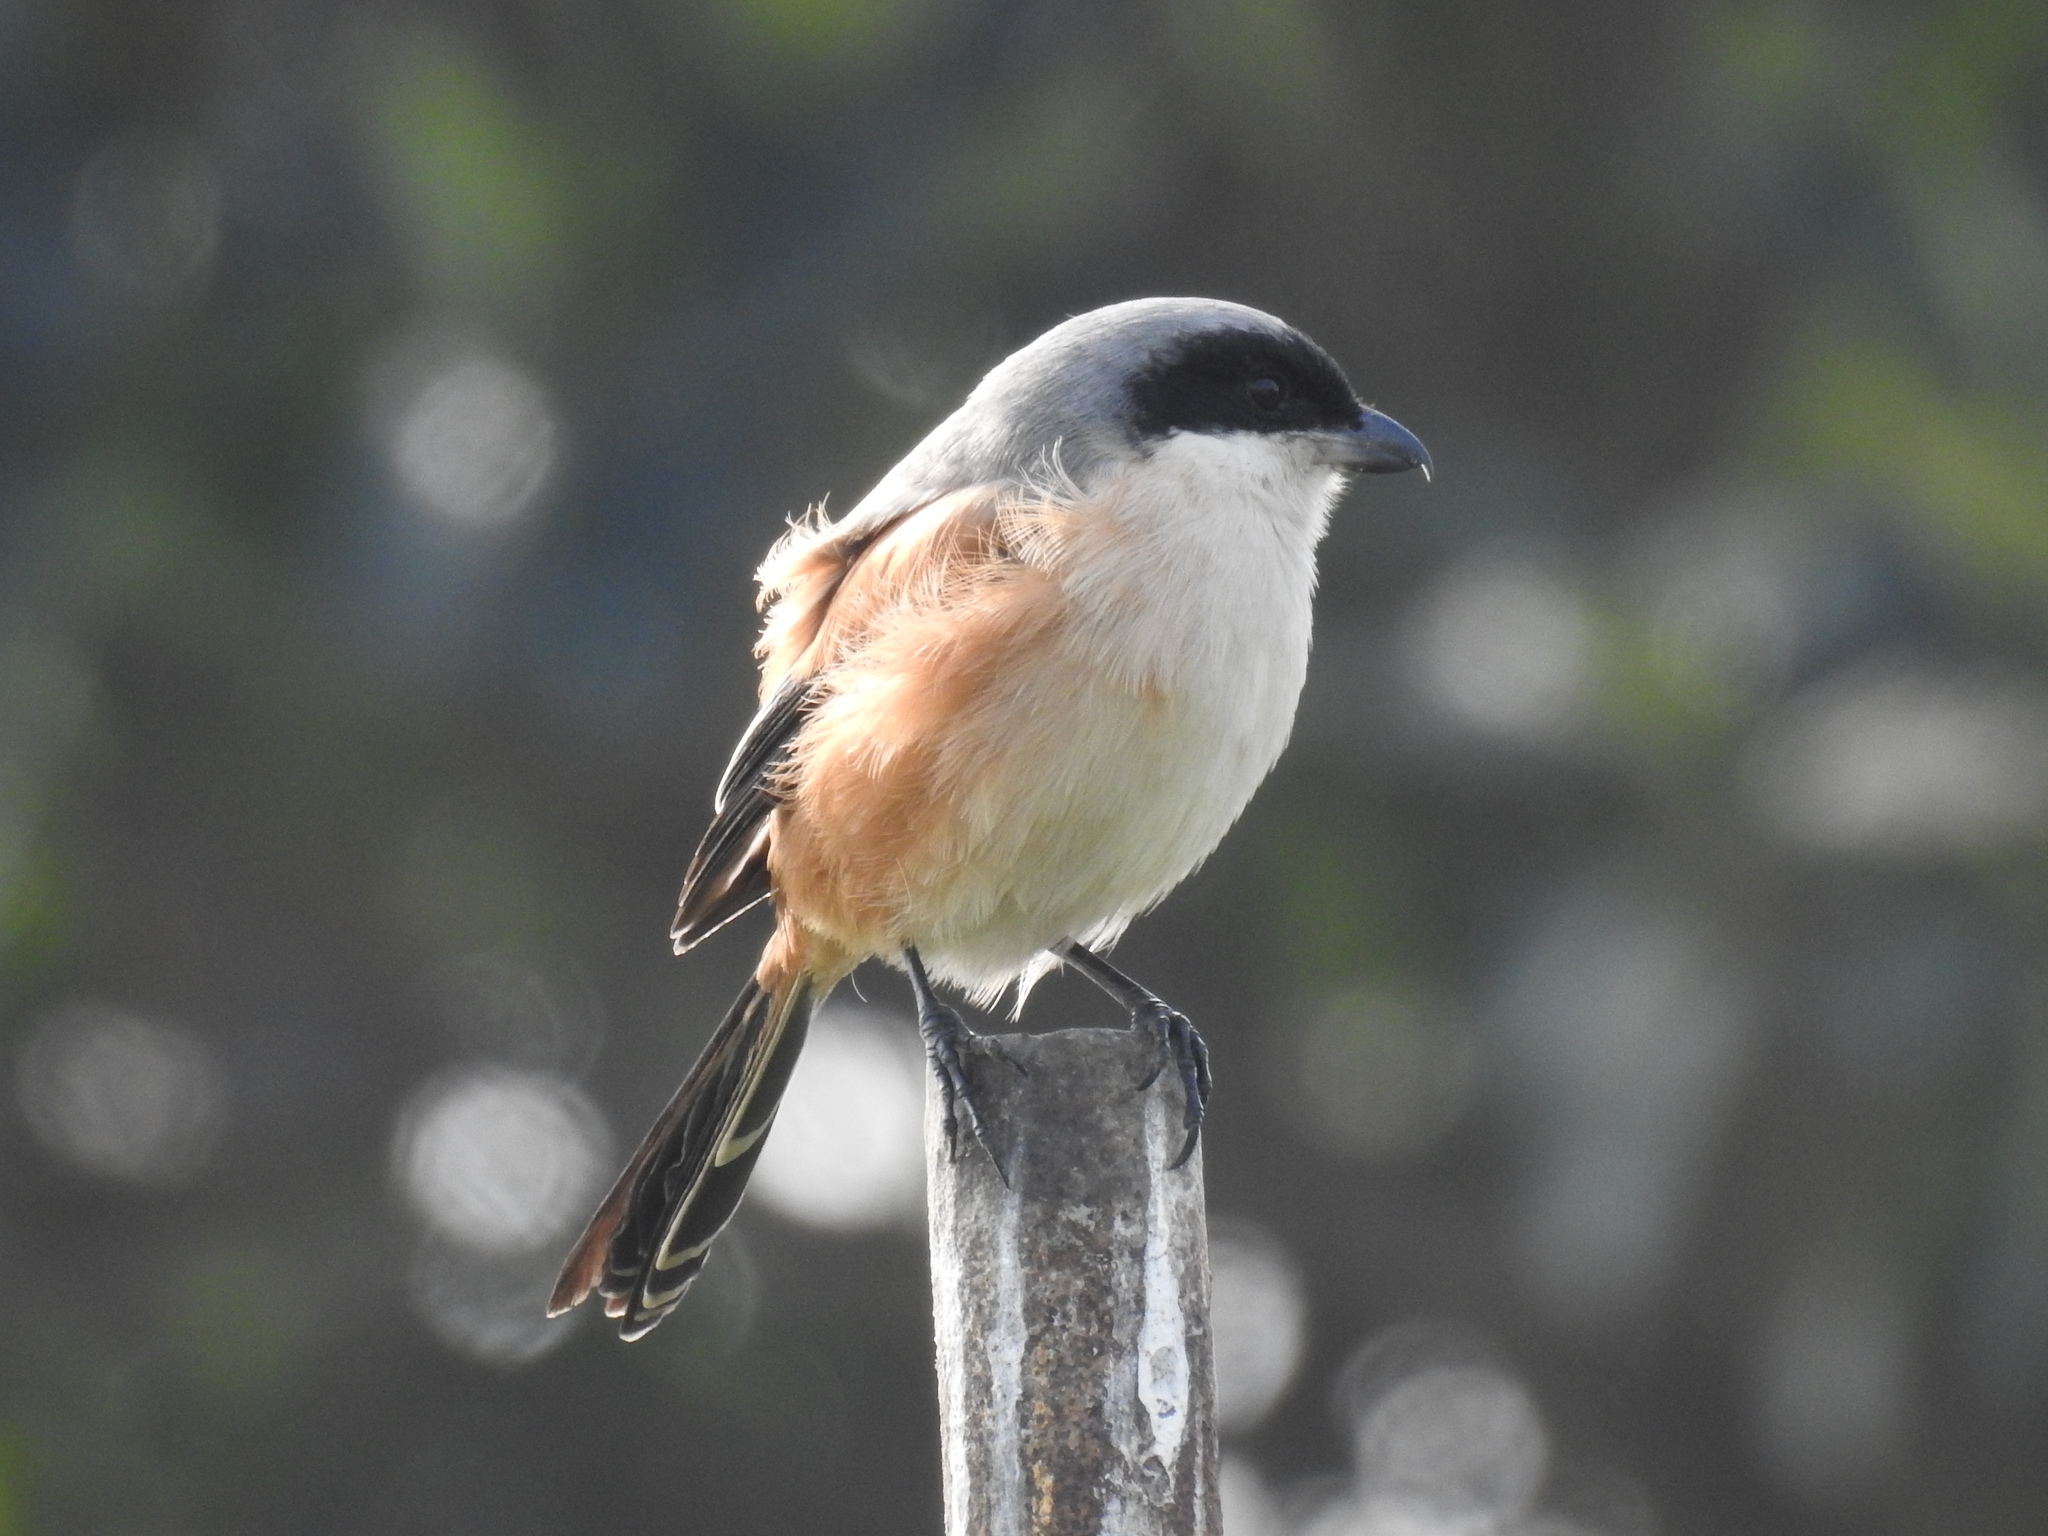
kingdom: Animalia
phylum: Chordata
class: Aves
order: Passeriformes
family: Laniidae
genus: Lanius
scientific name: Lanius schach
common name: Long-tailed shrike
